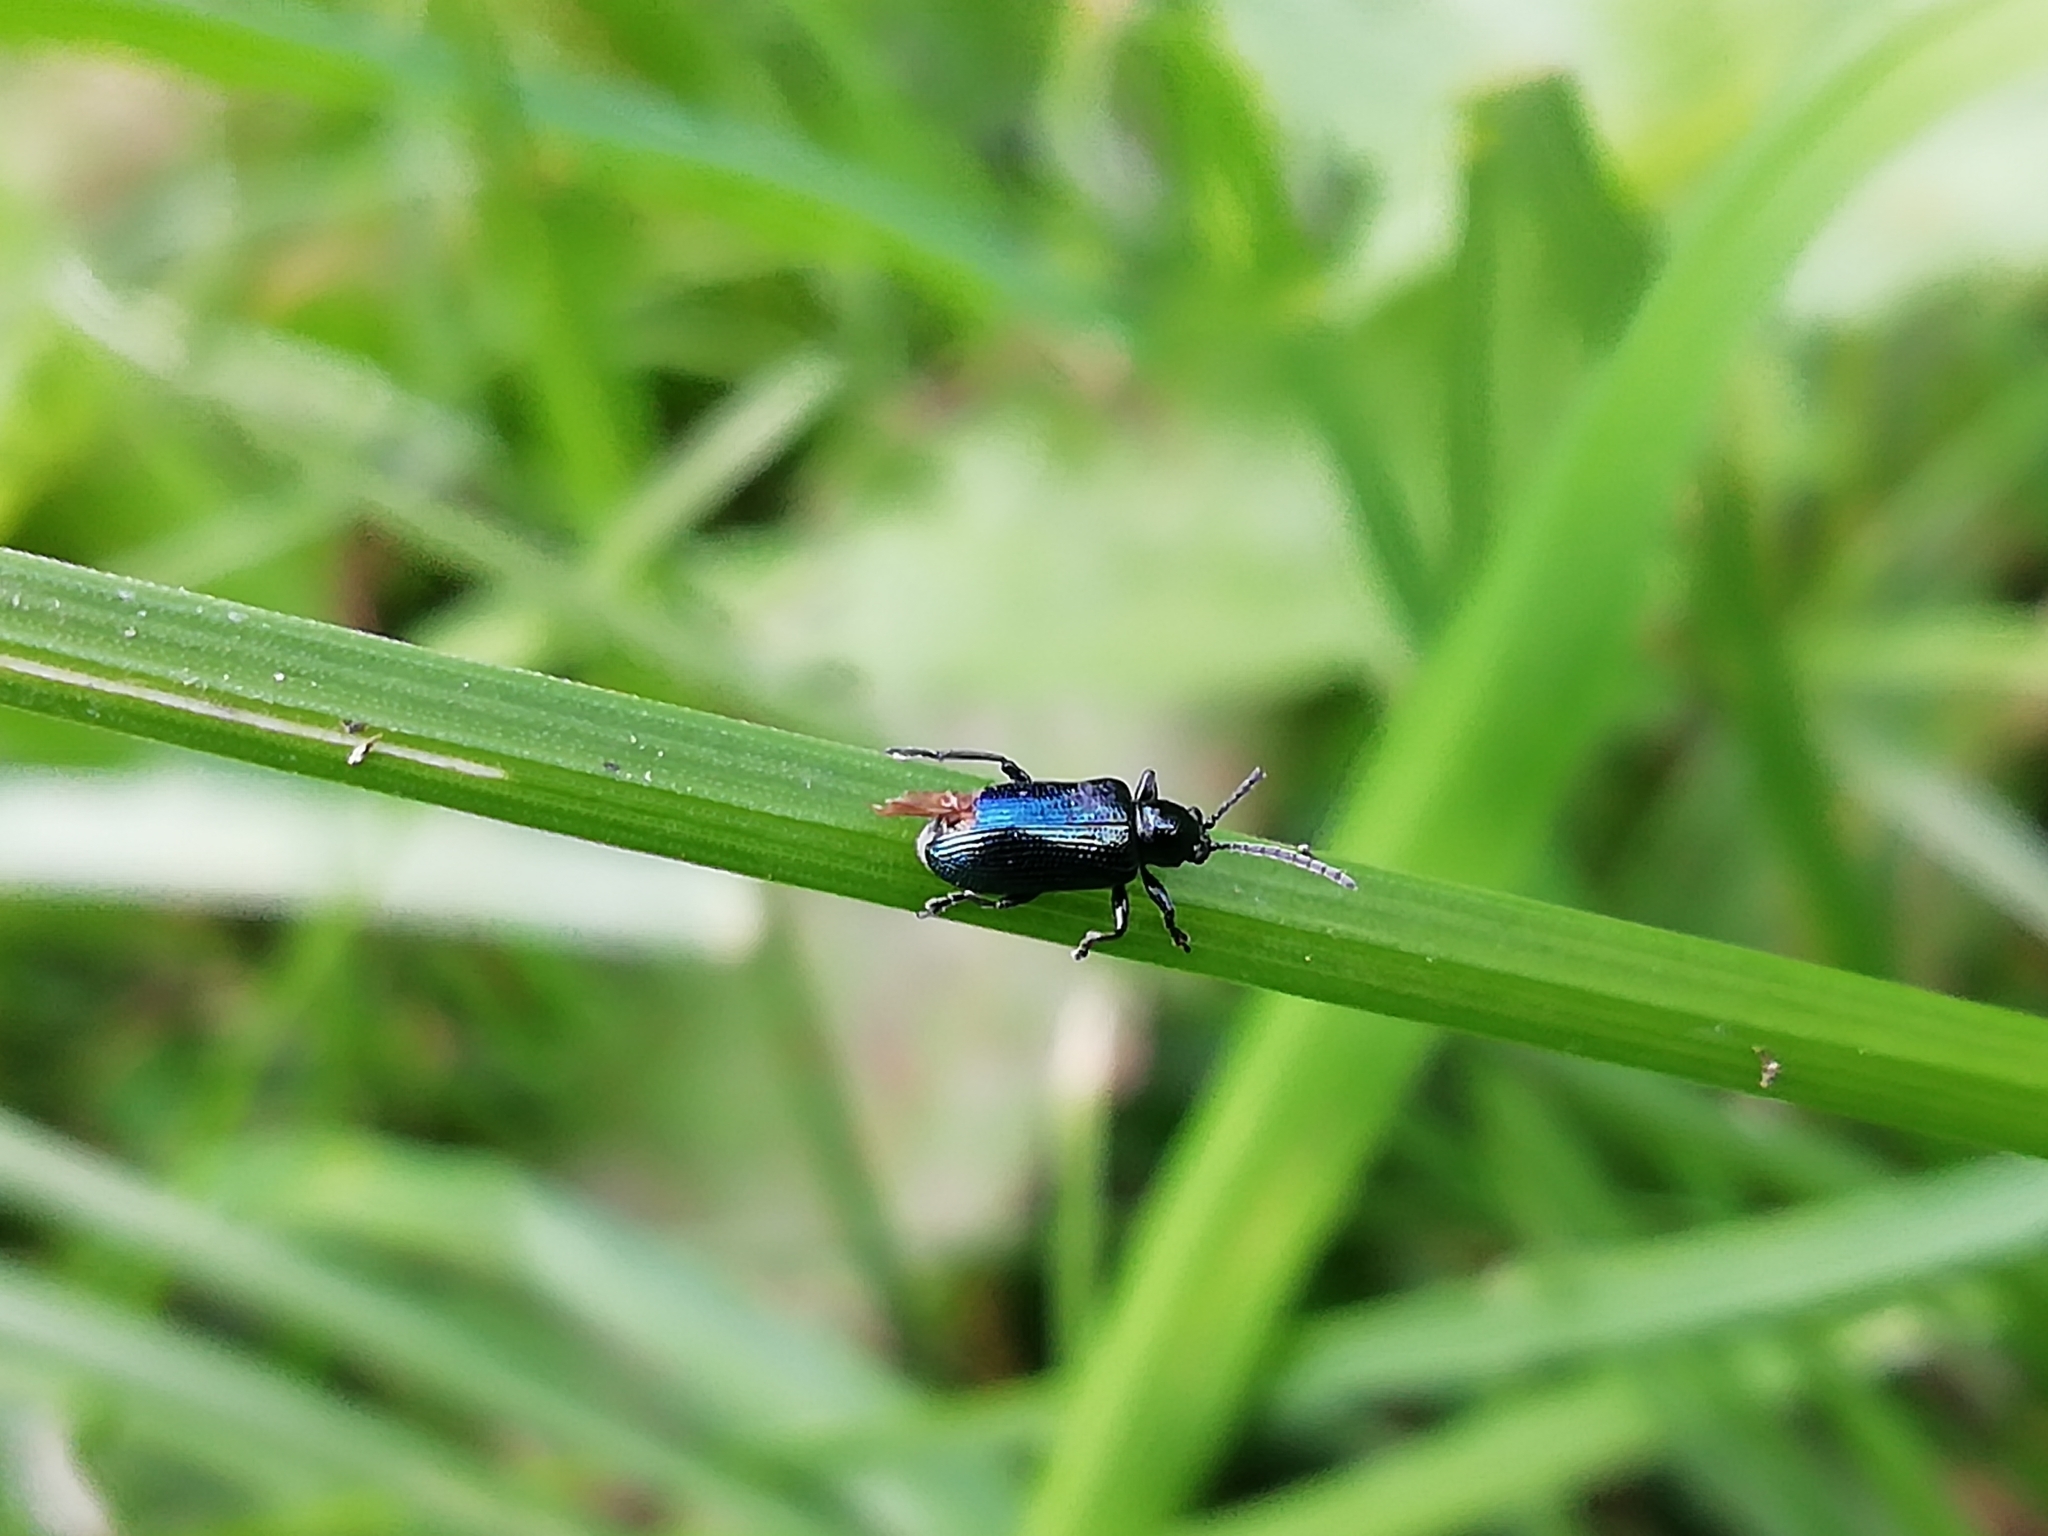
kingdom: Animalia
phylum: Arthropoda
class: Insecta
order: Coleoptera
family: Chrysomelidae
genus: Lema
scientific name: Lema cyanella
